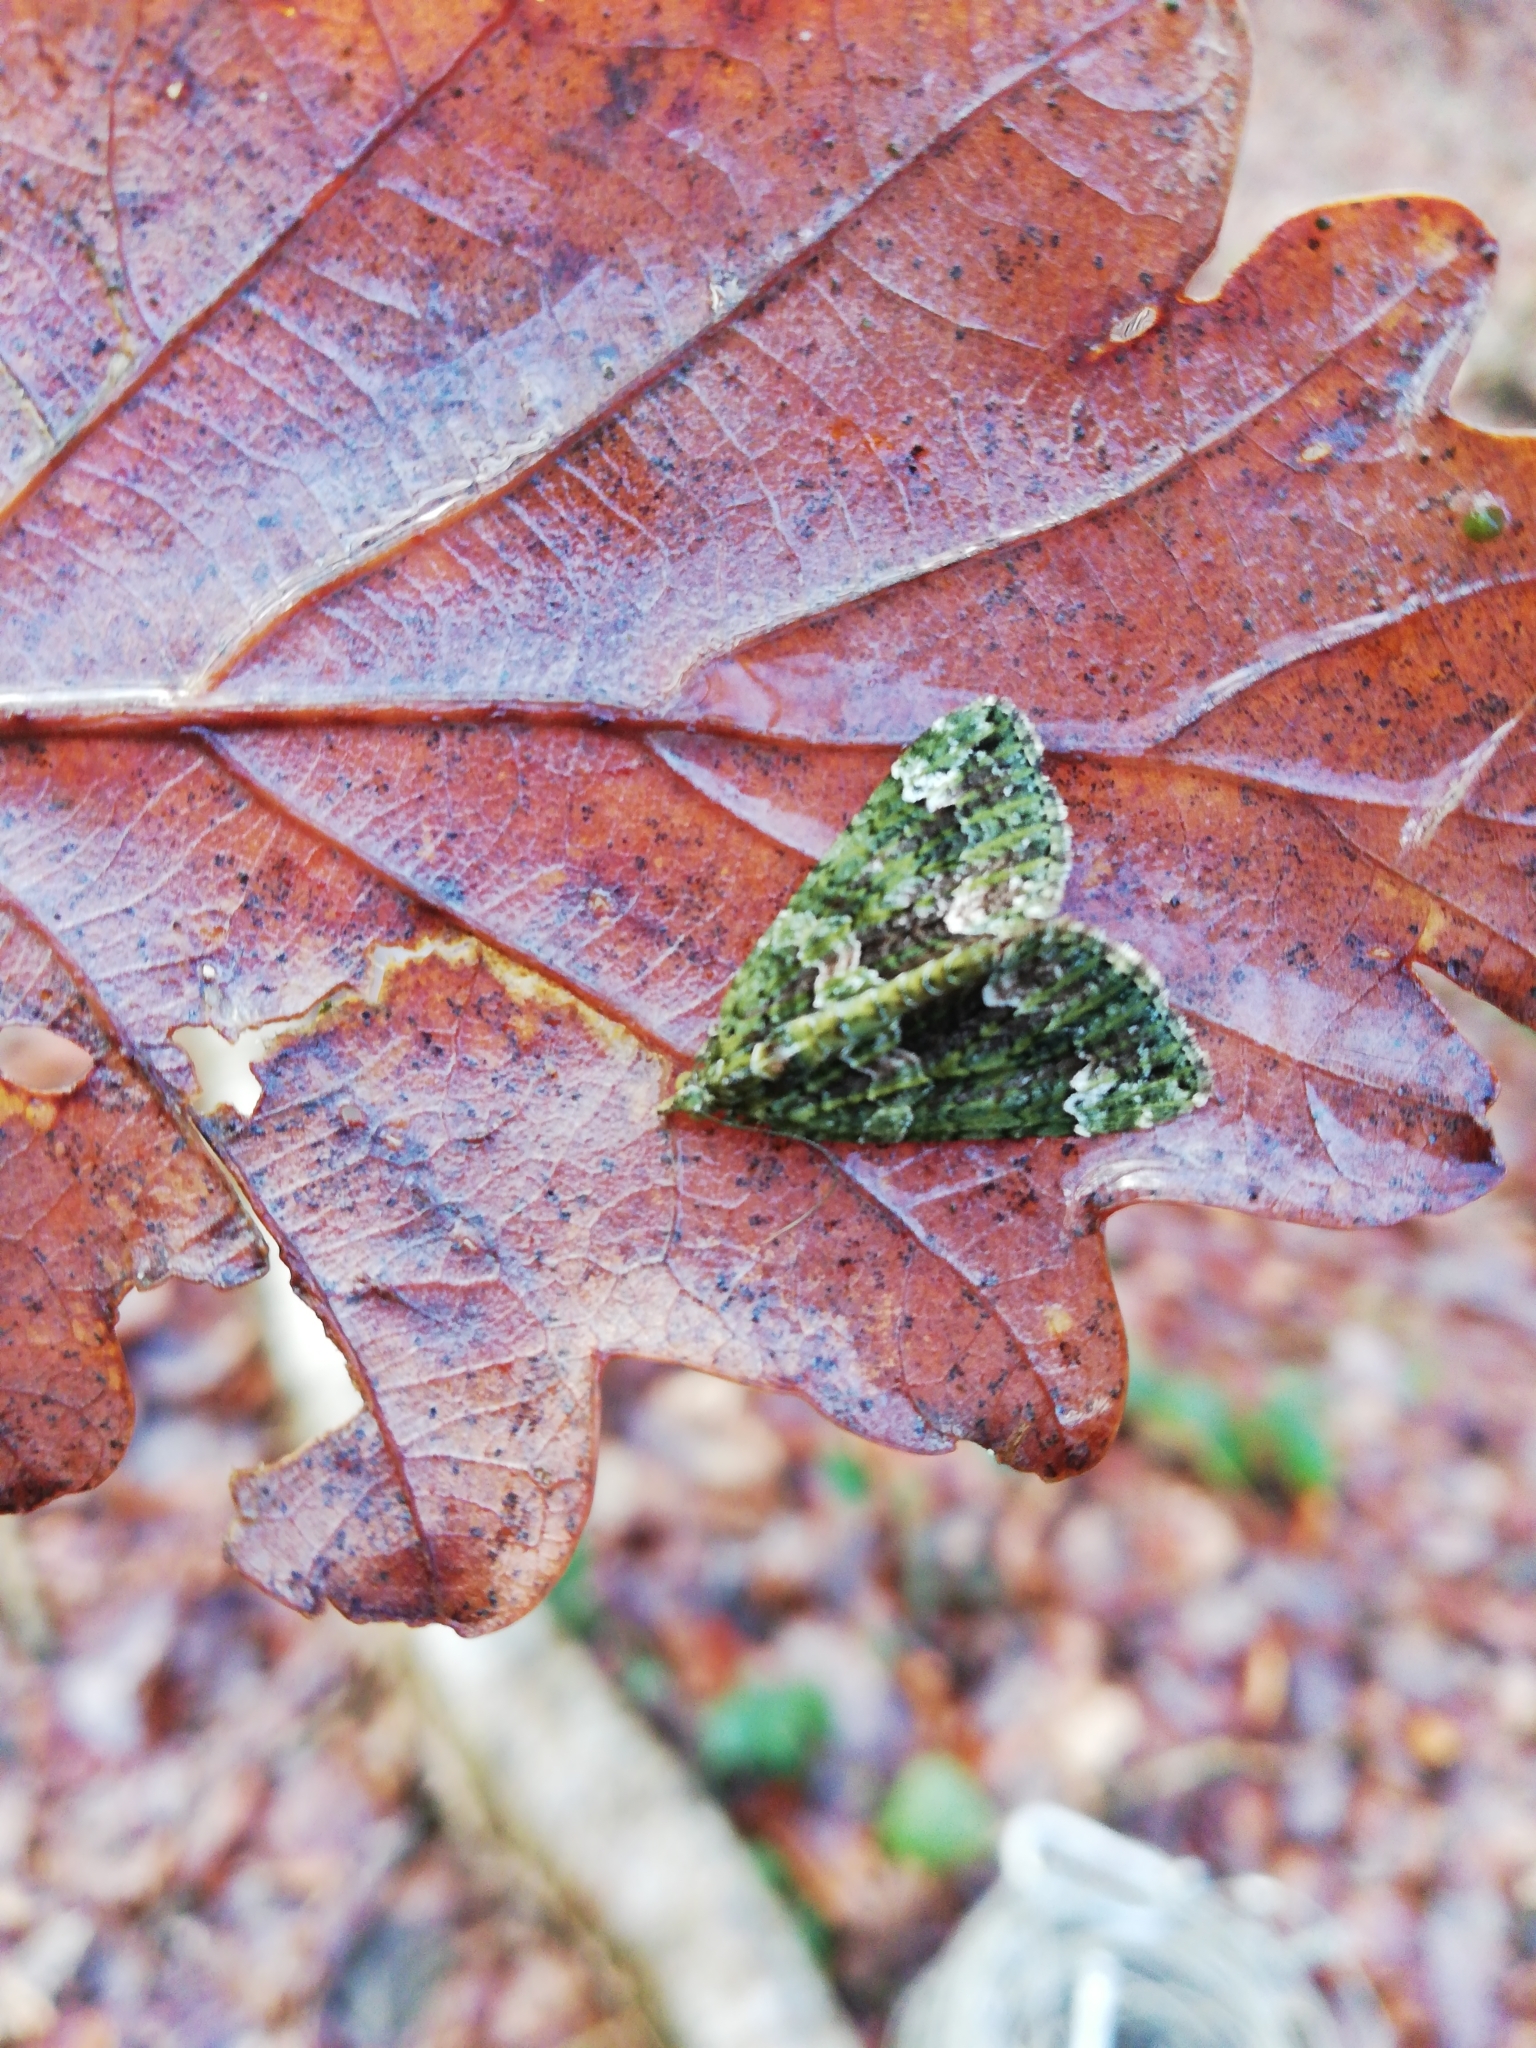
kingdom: Animalia
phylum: Arthropoda
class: Insecta
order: Lepidoptera
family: Geometridae
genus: Chloroclysta
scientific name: Chloroclysta siterata
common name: Red-green carpet
